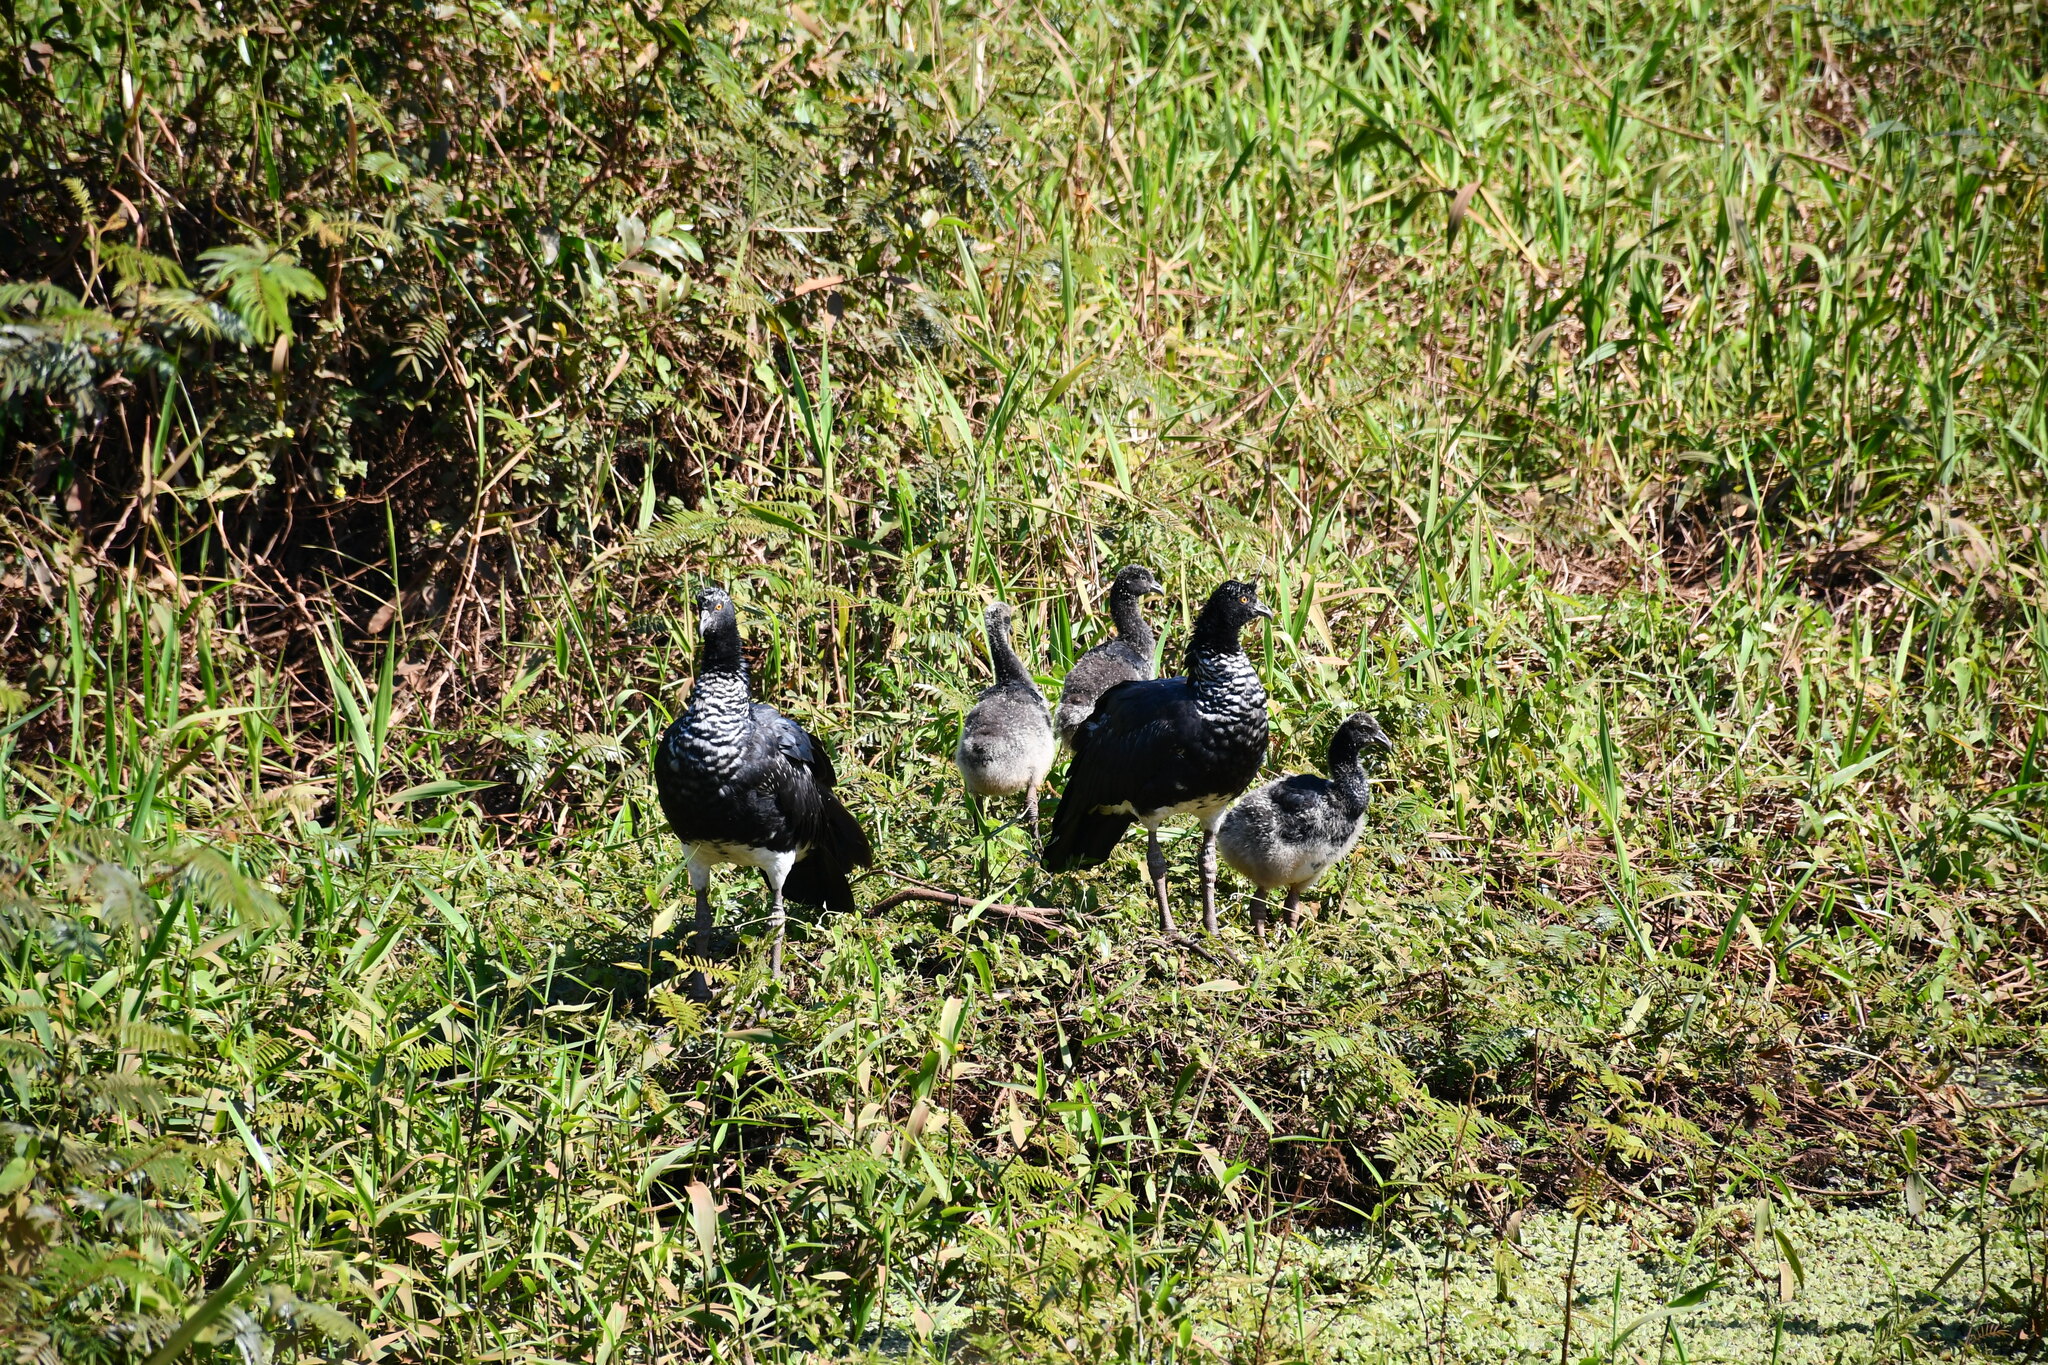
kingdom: Animalia
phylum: Chordata
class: Aves
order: Anseriformes
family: Anhimidae
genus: Anhima
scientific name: Anhima cornuta
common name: Horned screamer
